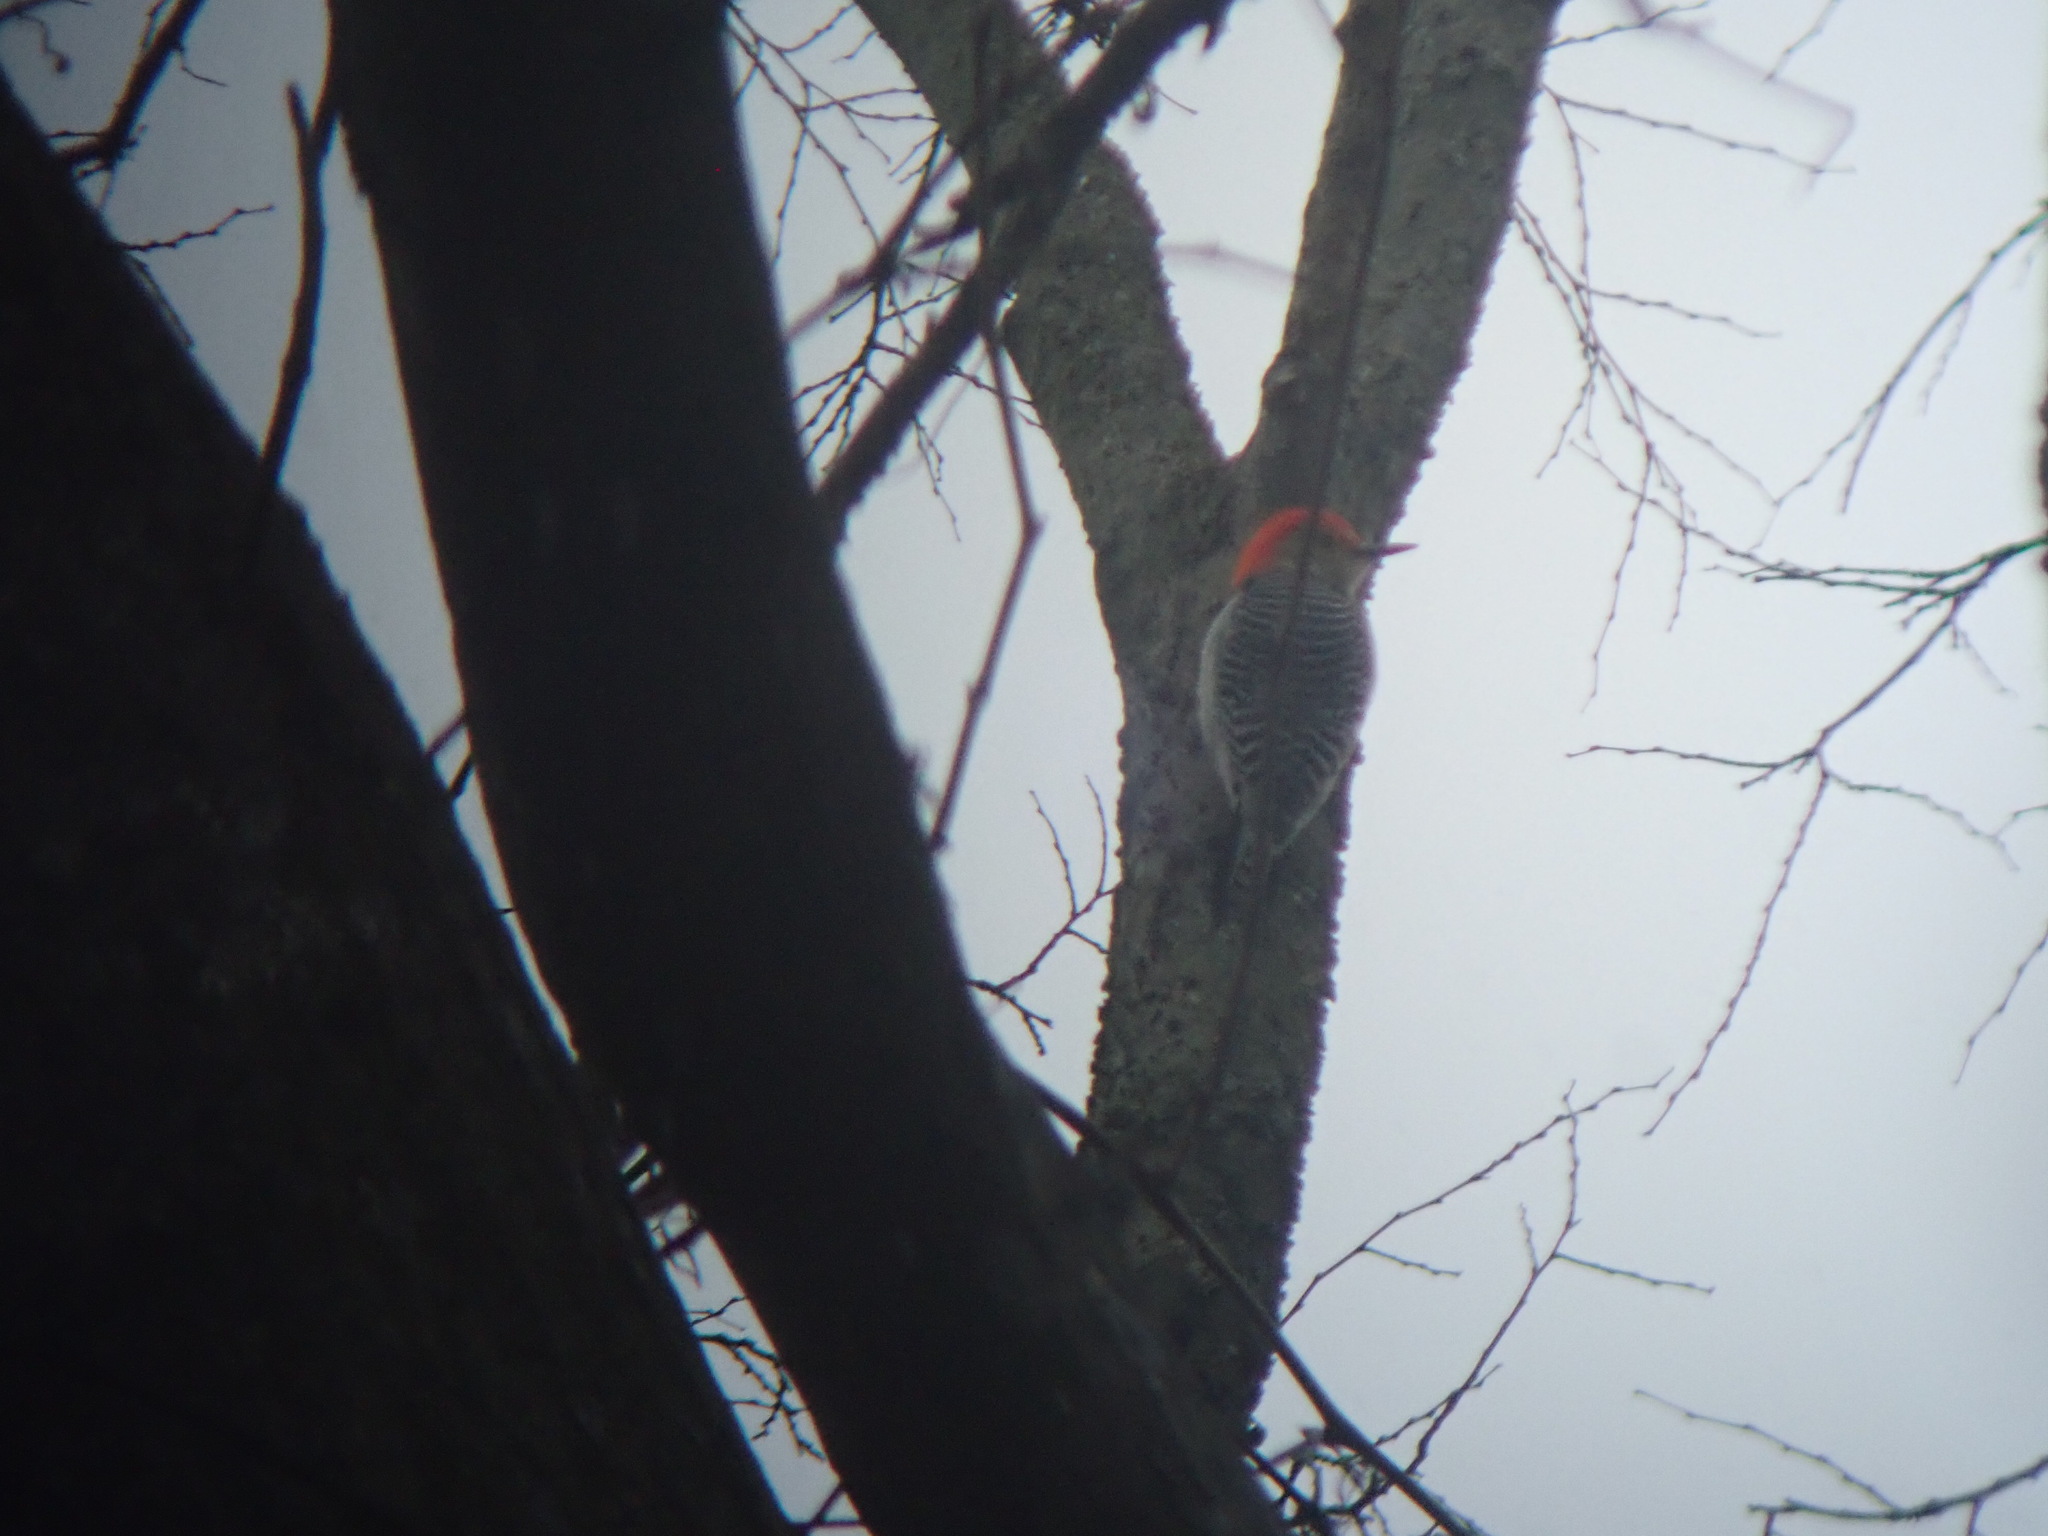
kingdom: Animalia
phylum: Chordata
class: Aves
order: Piciformes
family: Picidae
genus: Melanerpes
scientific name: Melanerpes carolinus
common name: Red-bellied woodpecker
